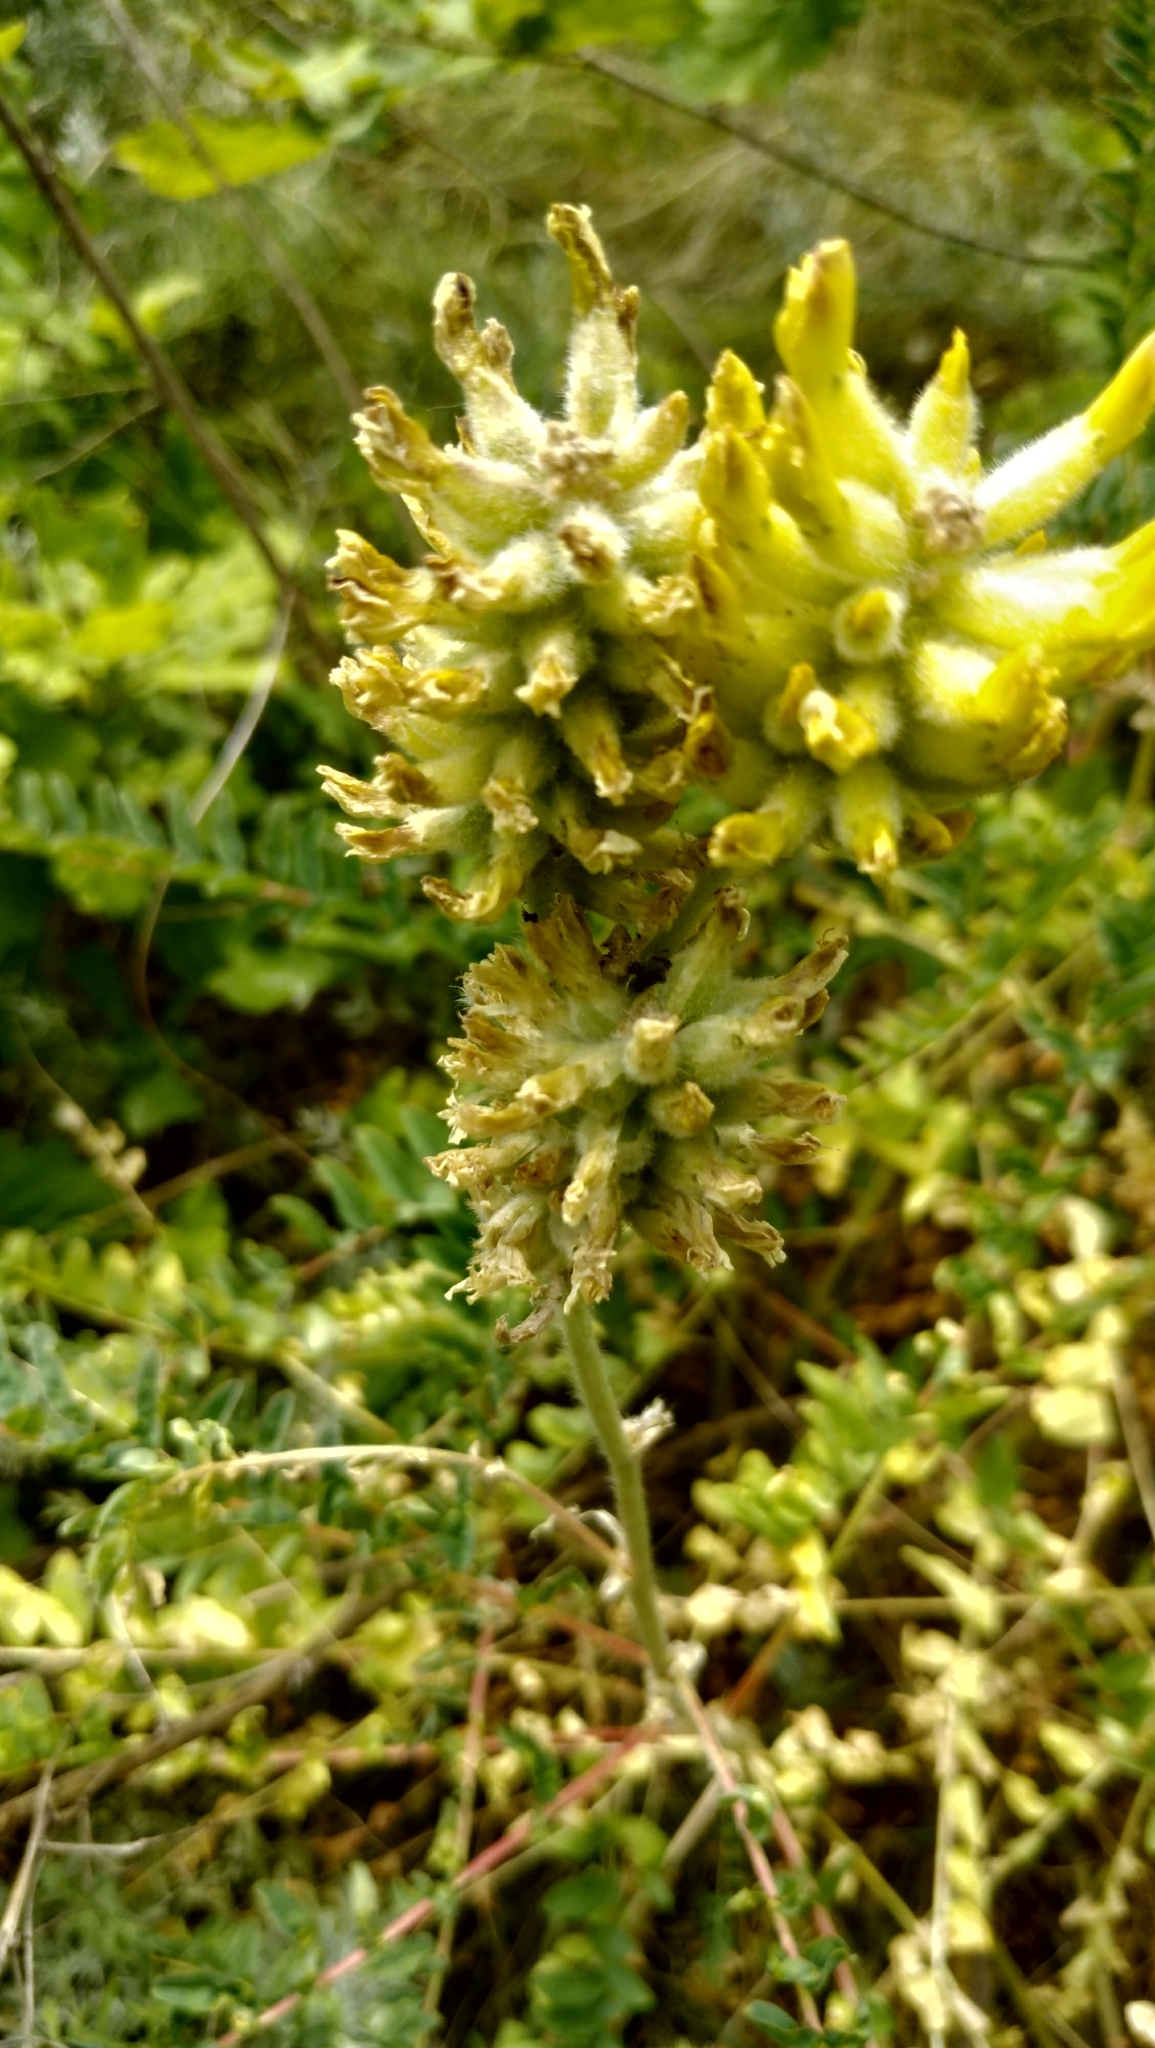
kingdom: Plantae
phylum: Tracheophyta
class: Magnoliopsida
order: Fabales
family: Fabaceae
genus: Astragalus
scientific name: Astragalus cicer
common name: Chick-pea milk-vetch
